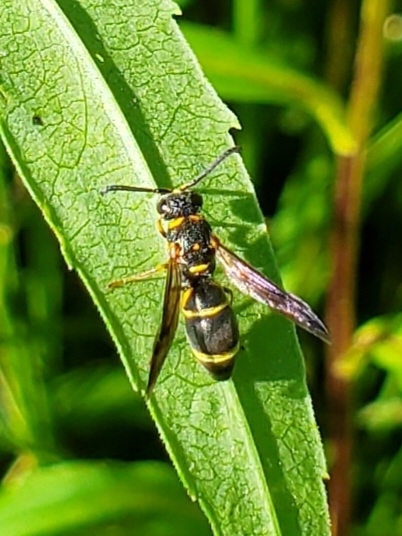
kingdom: Animalia
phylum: Arthropoda
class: Insecta
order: Hymenoptera
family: Eumenidae
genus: Parancistrocerus
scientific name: Parancistrocerus fulvipes
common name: Potter wasp
